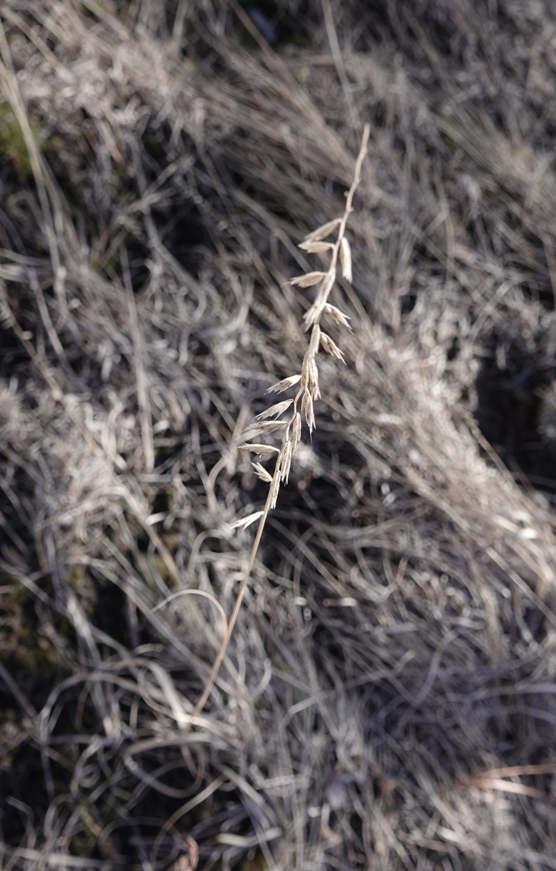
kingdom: Plantae
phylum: Tracheophyta
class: Liliopsida
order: Poales
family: Poaceae
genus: Bouteloua
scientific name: Bouteloua curtipendula
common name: Side-oats grama
